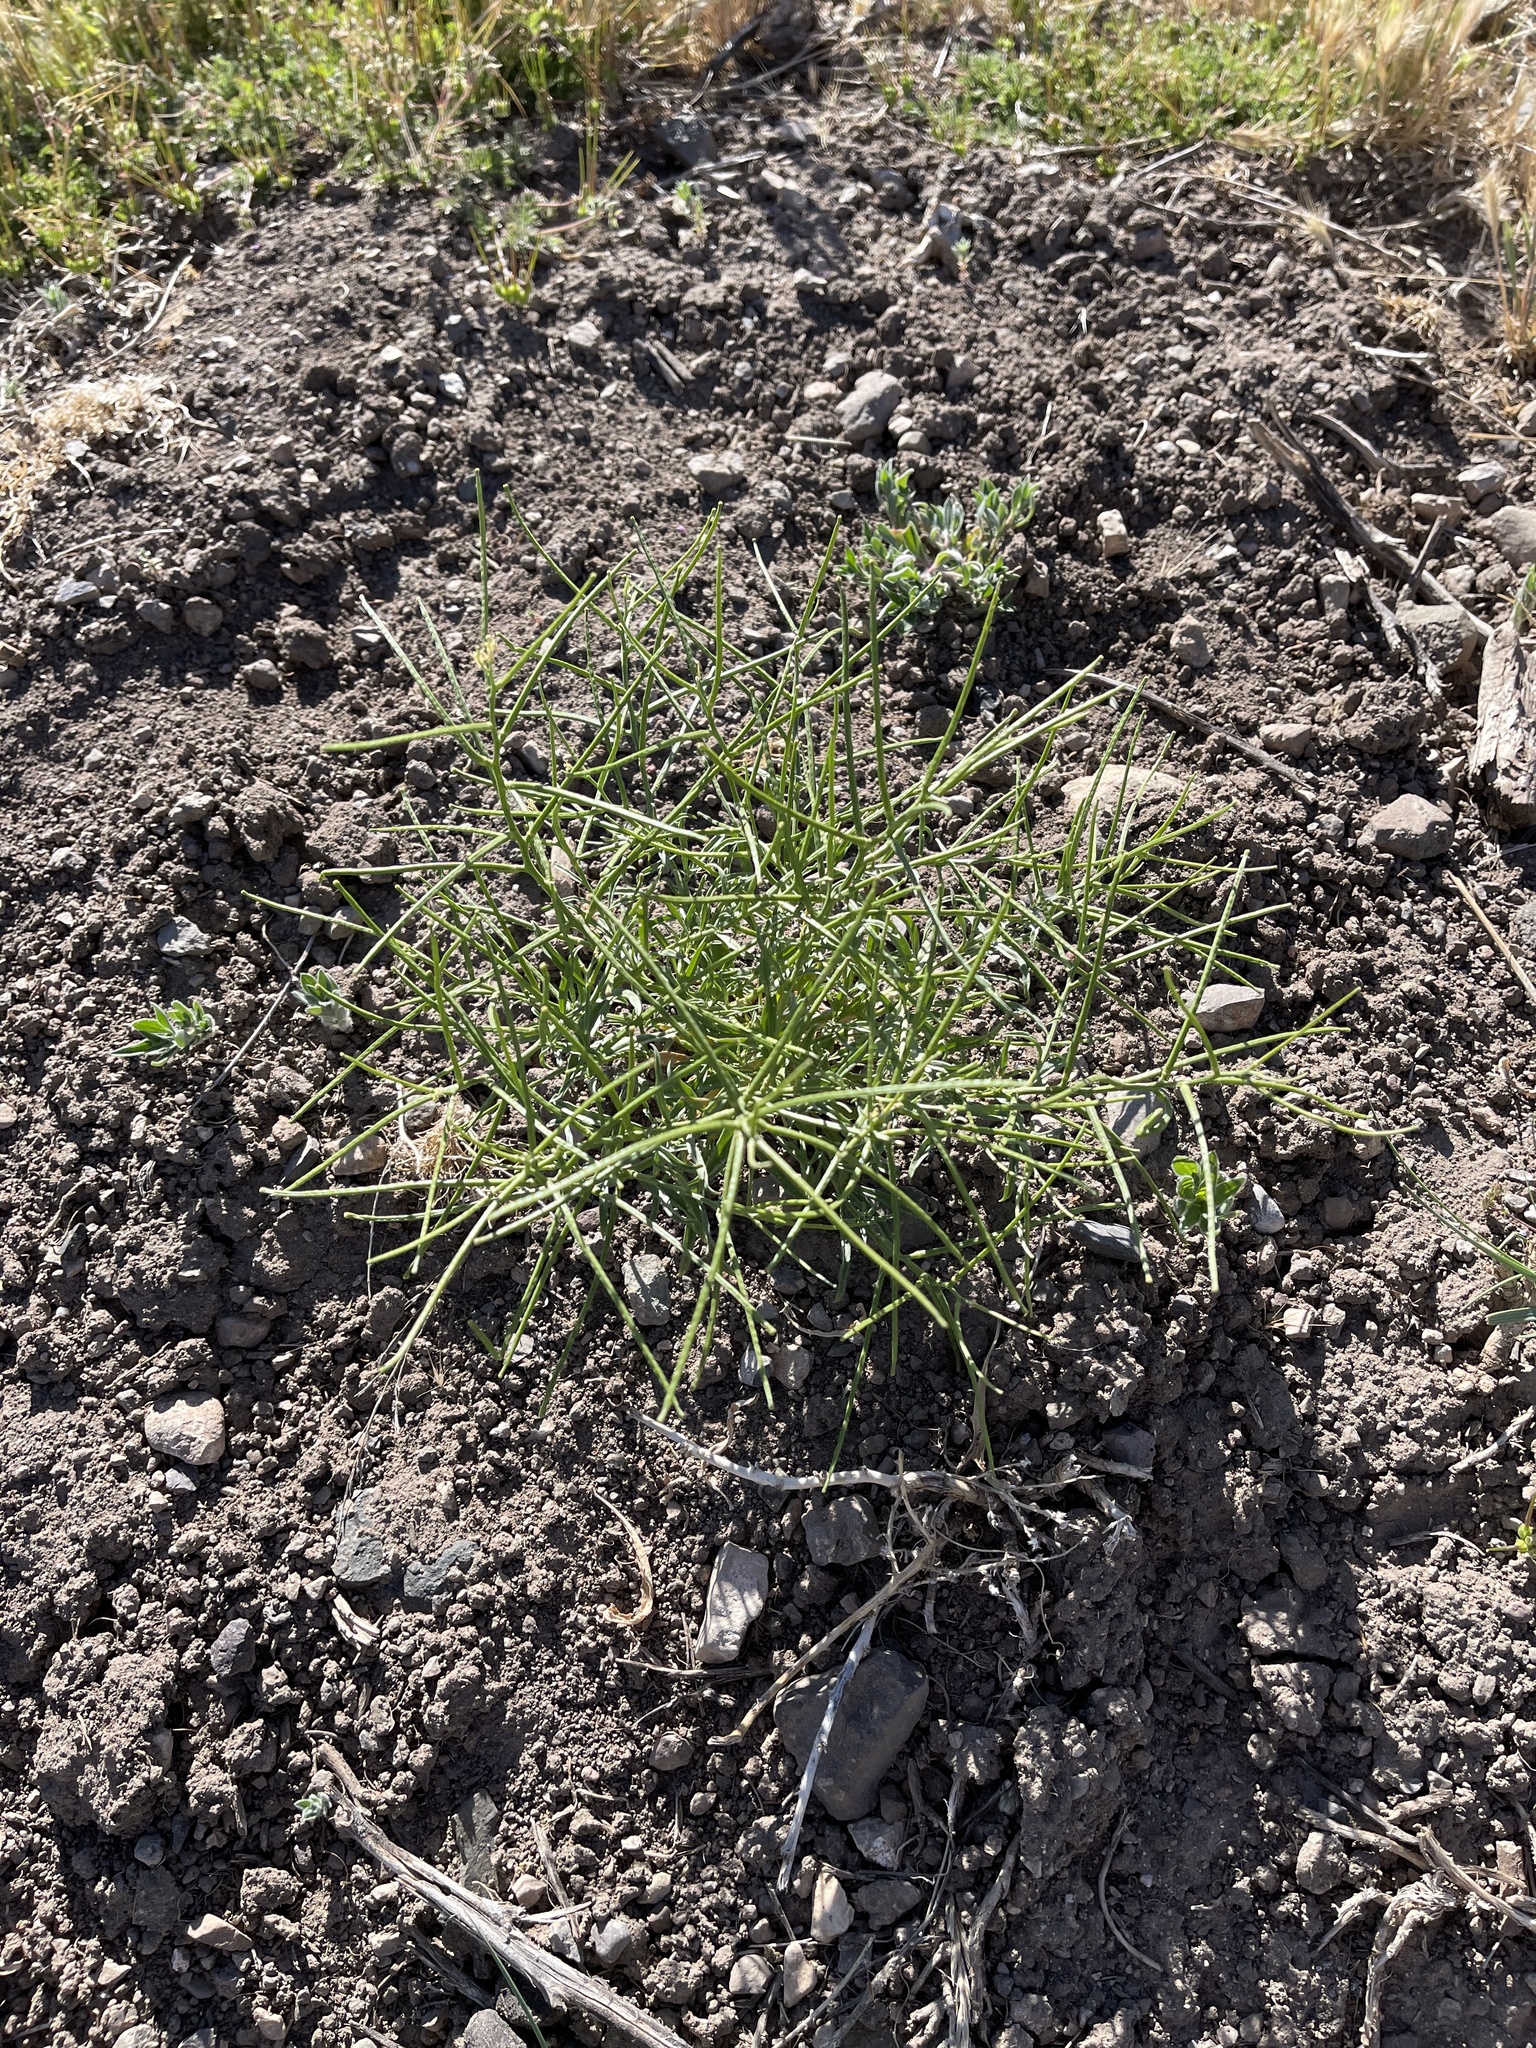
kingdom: Plantae
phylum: Tracheophyta
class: Magnoliopsida
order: Gentianales
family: Apocynaceae
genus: Asclepias
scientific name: Asclepias subverticillata
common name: Horsetail milkweed
